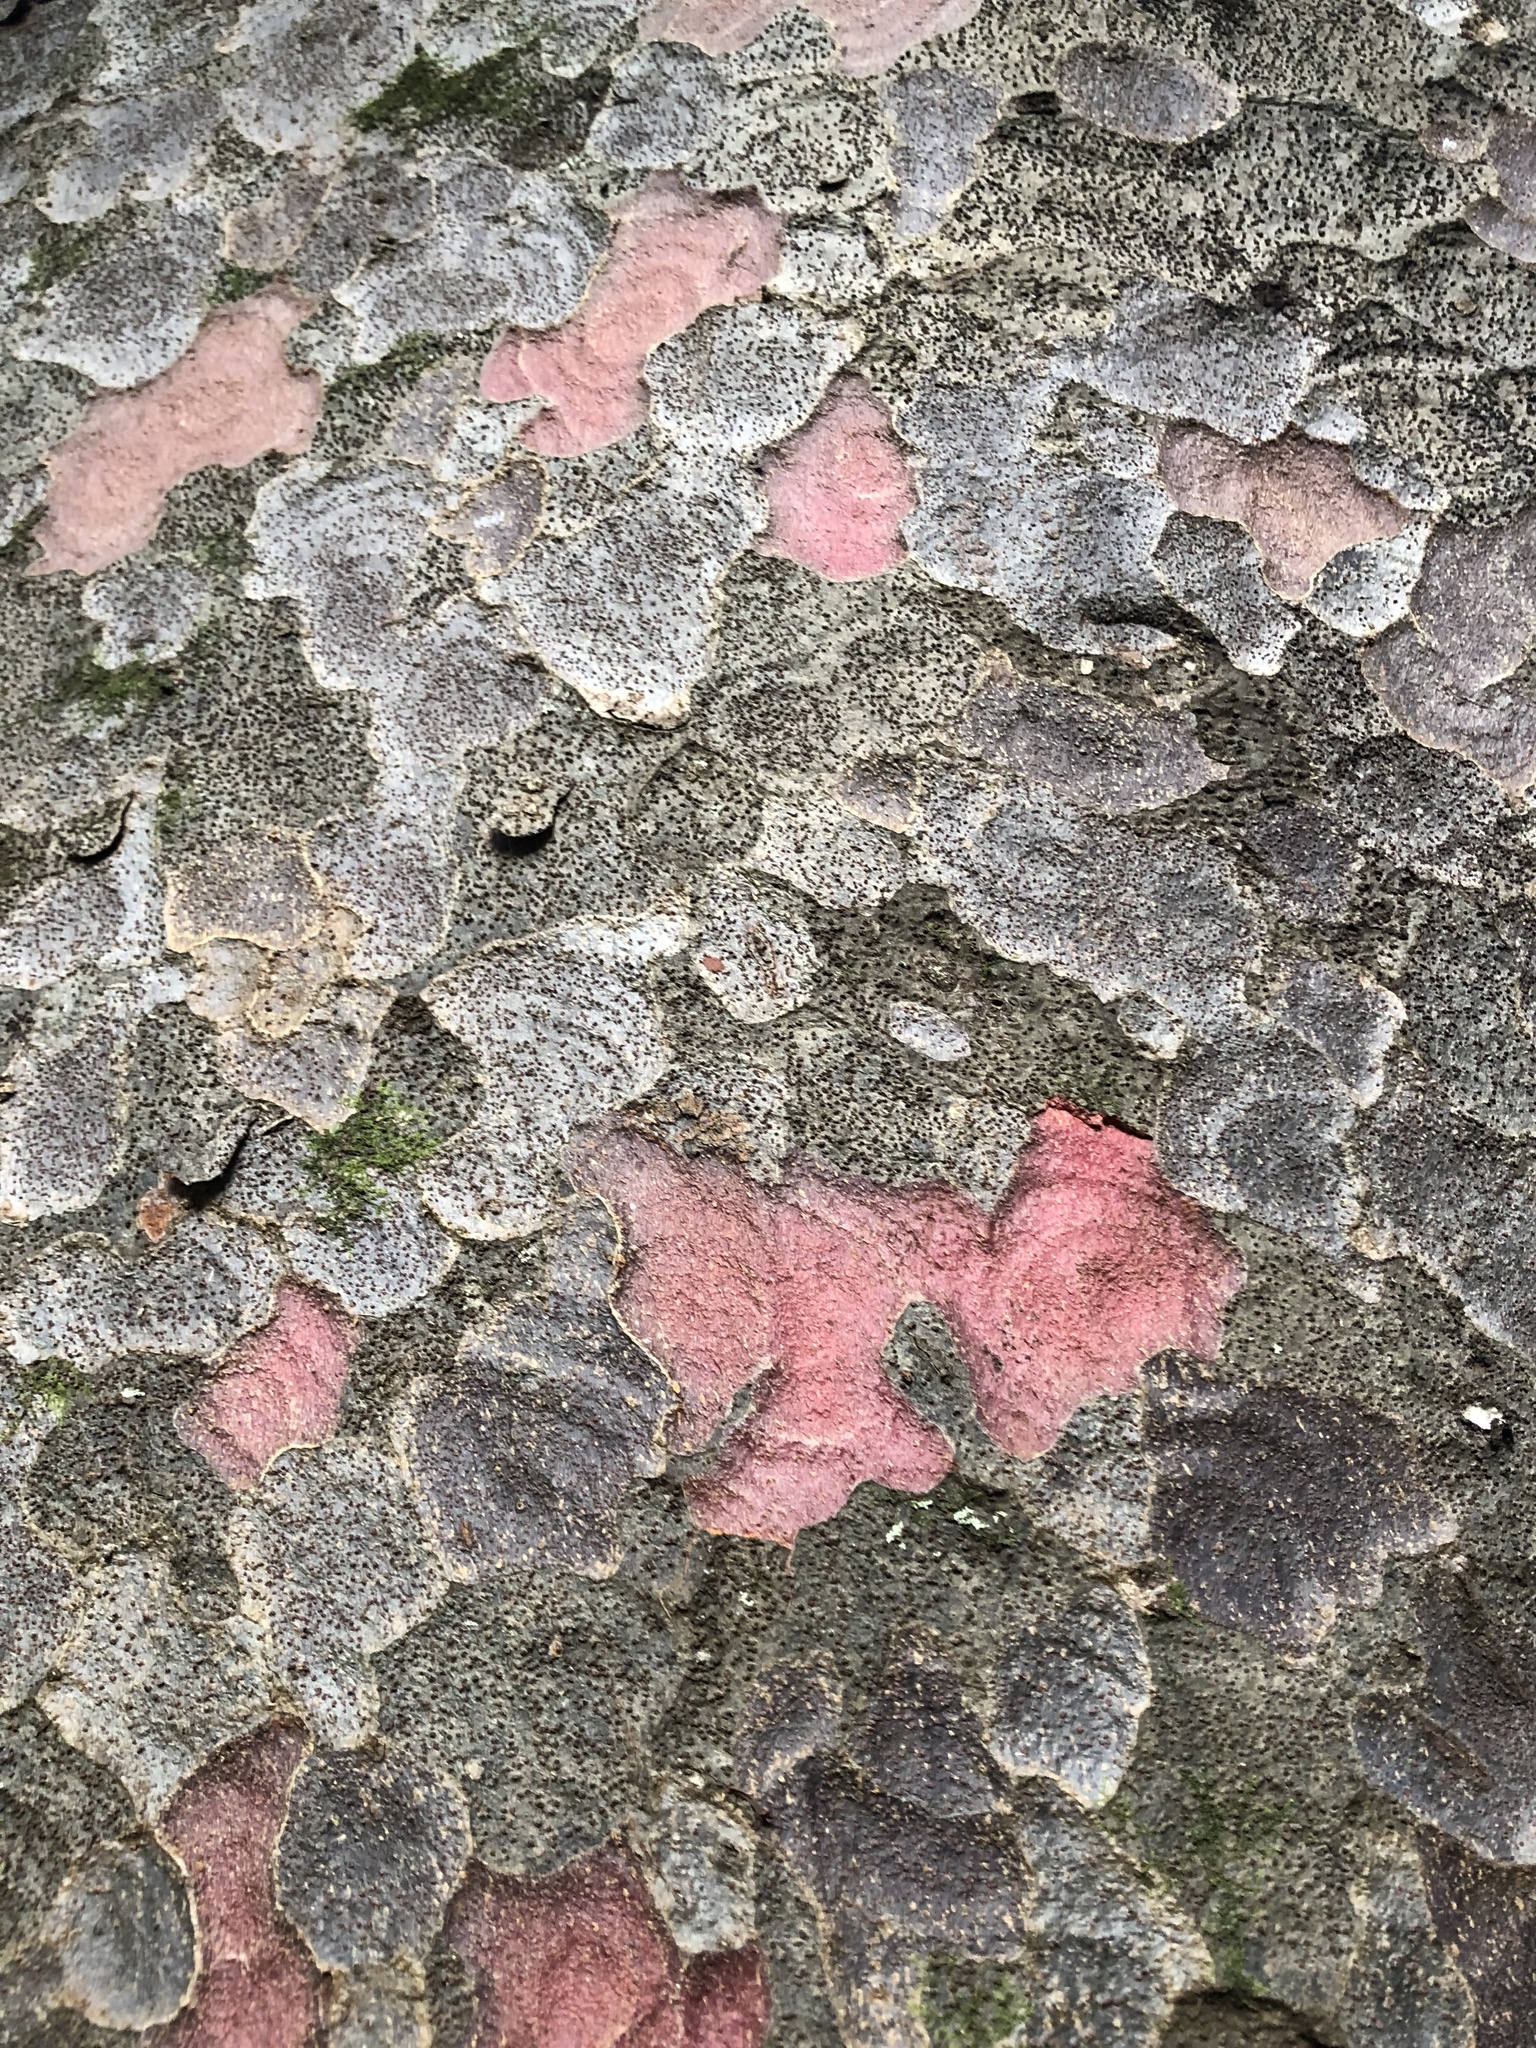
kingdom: Plantae
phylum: Tracheophyta
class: Pinopsida
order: Pinales
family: Podocarpaceae
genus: Prumnopitys
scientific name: Prumnopitys taxifolia
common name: Matai
